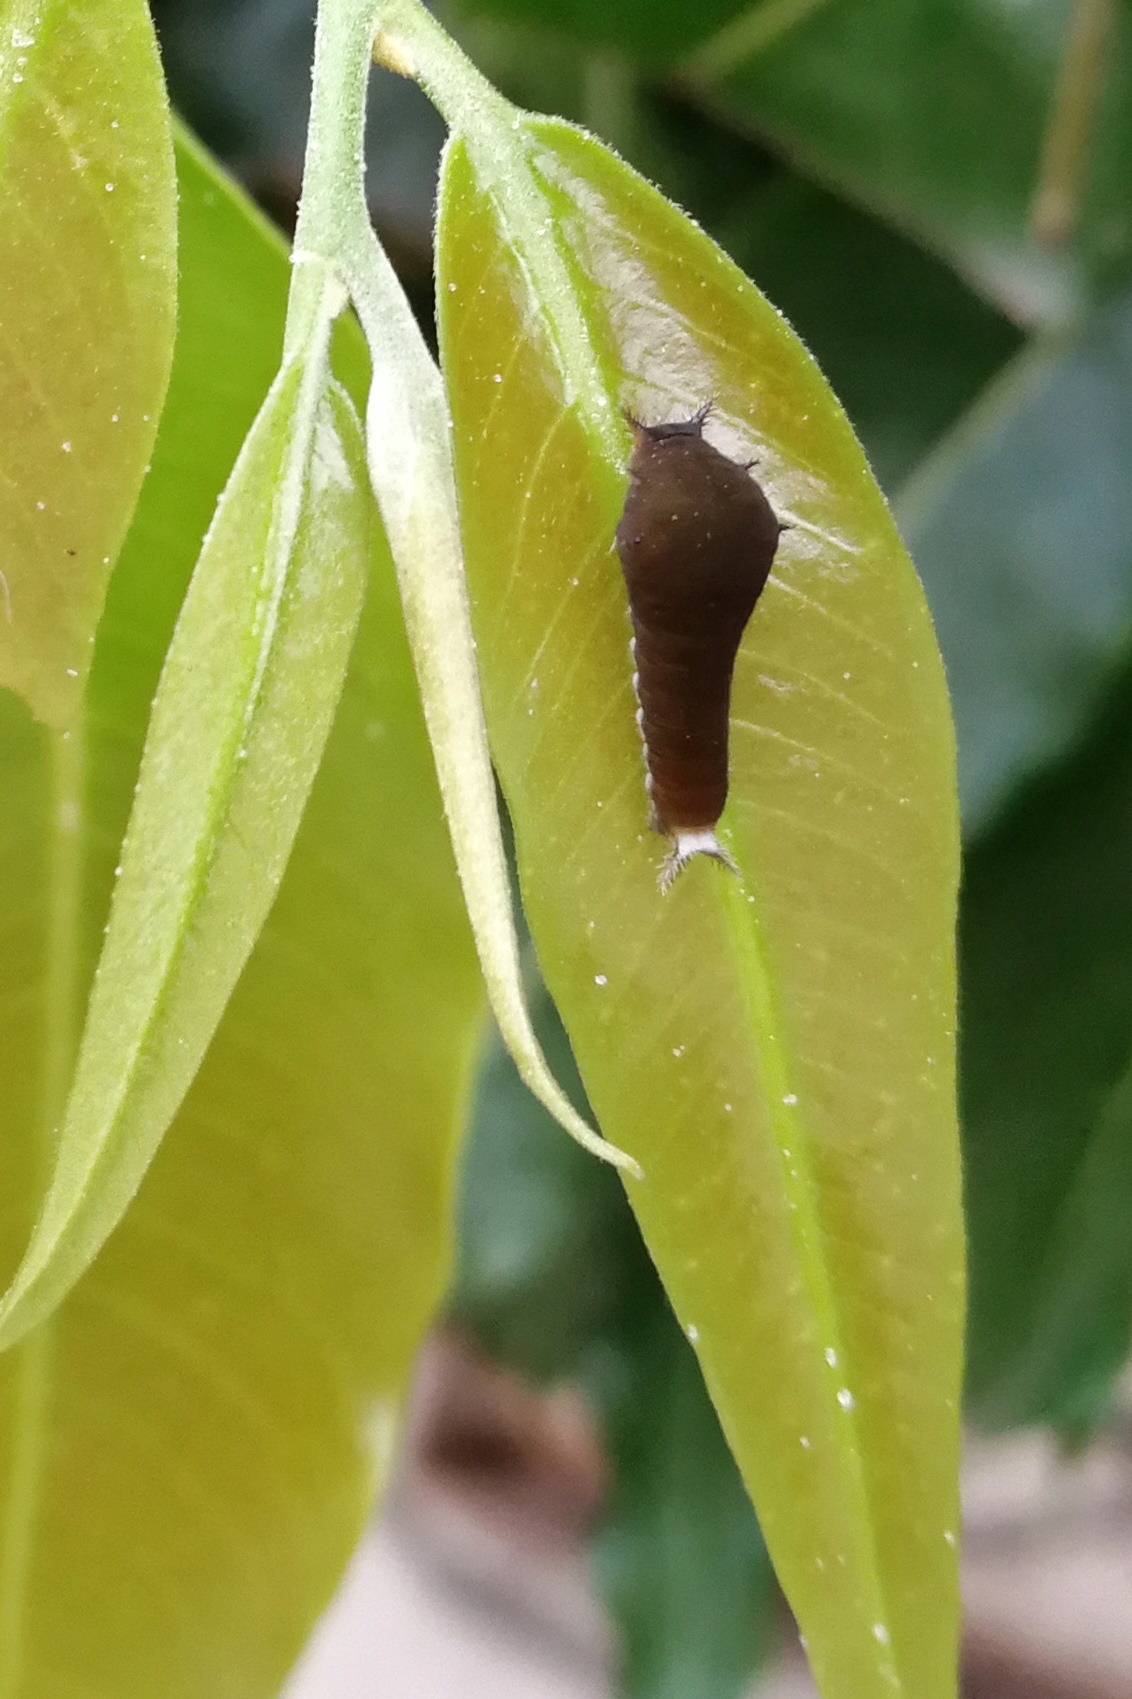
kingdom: Animalia
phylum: Arthropoda
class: Insecta
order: Lepidoptera
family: Papilionidae
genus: Graphium
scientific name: Graphium doson
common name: Common jay
